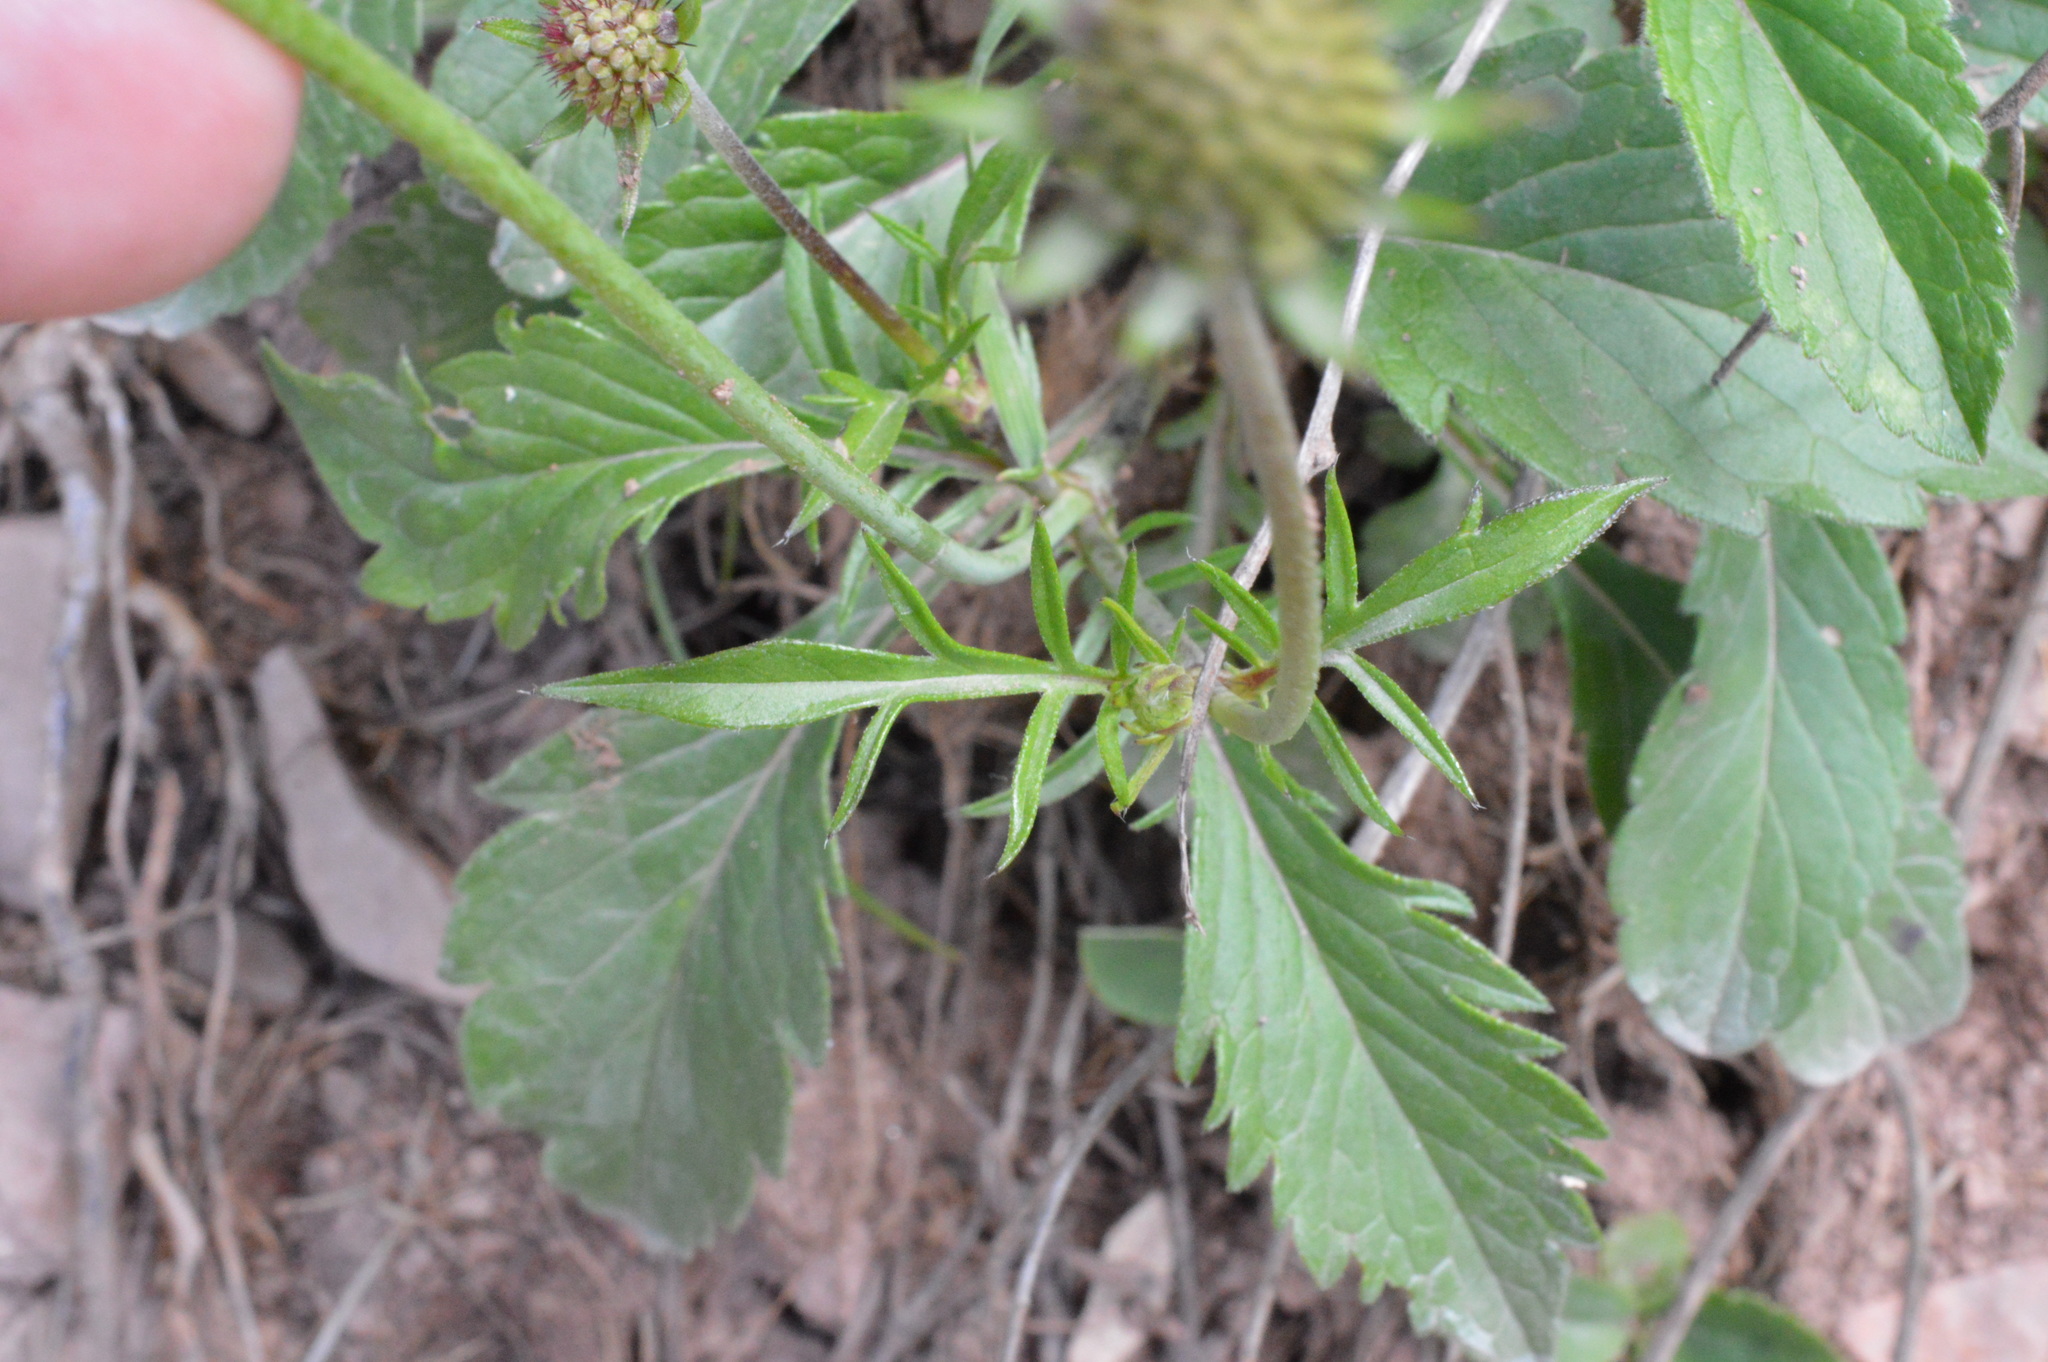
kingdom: Plantae
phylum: Tracheophyta
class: Magnoliopsida
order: Dipsacales
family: Caprifoliaceae
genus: Scabiosa
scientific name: Scabiosa lucida
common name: Shining scabious
